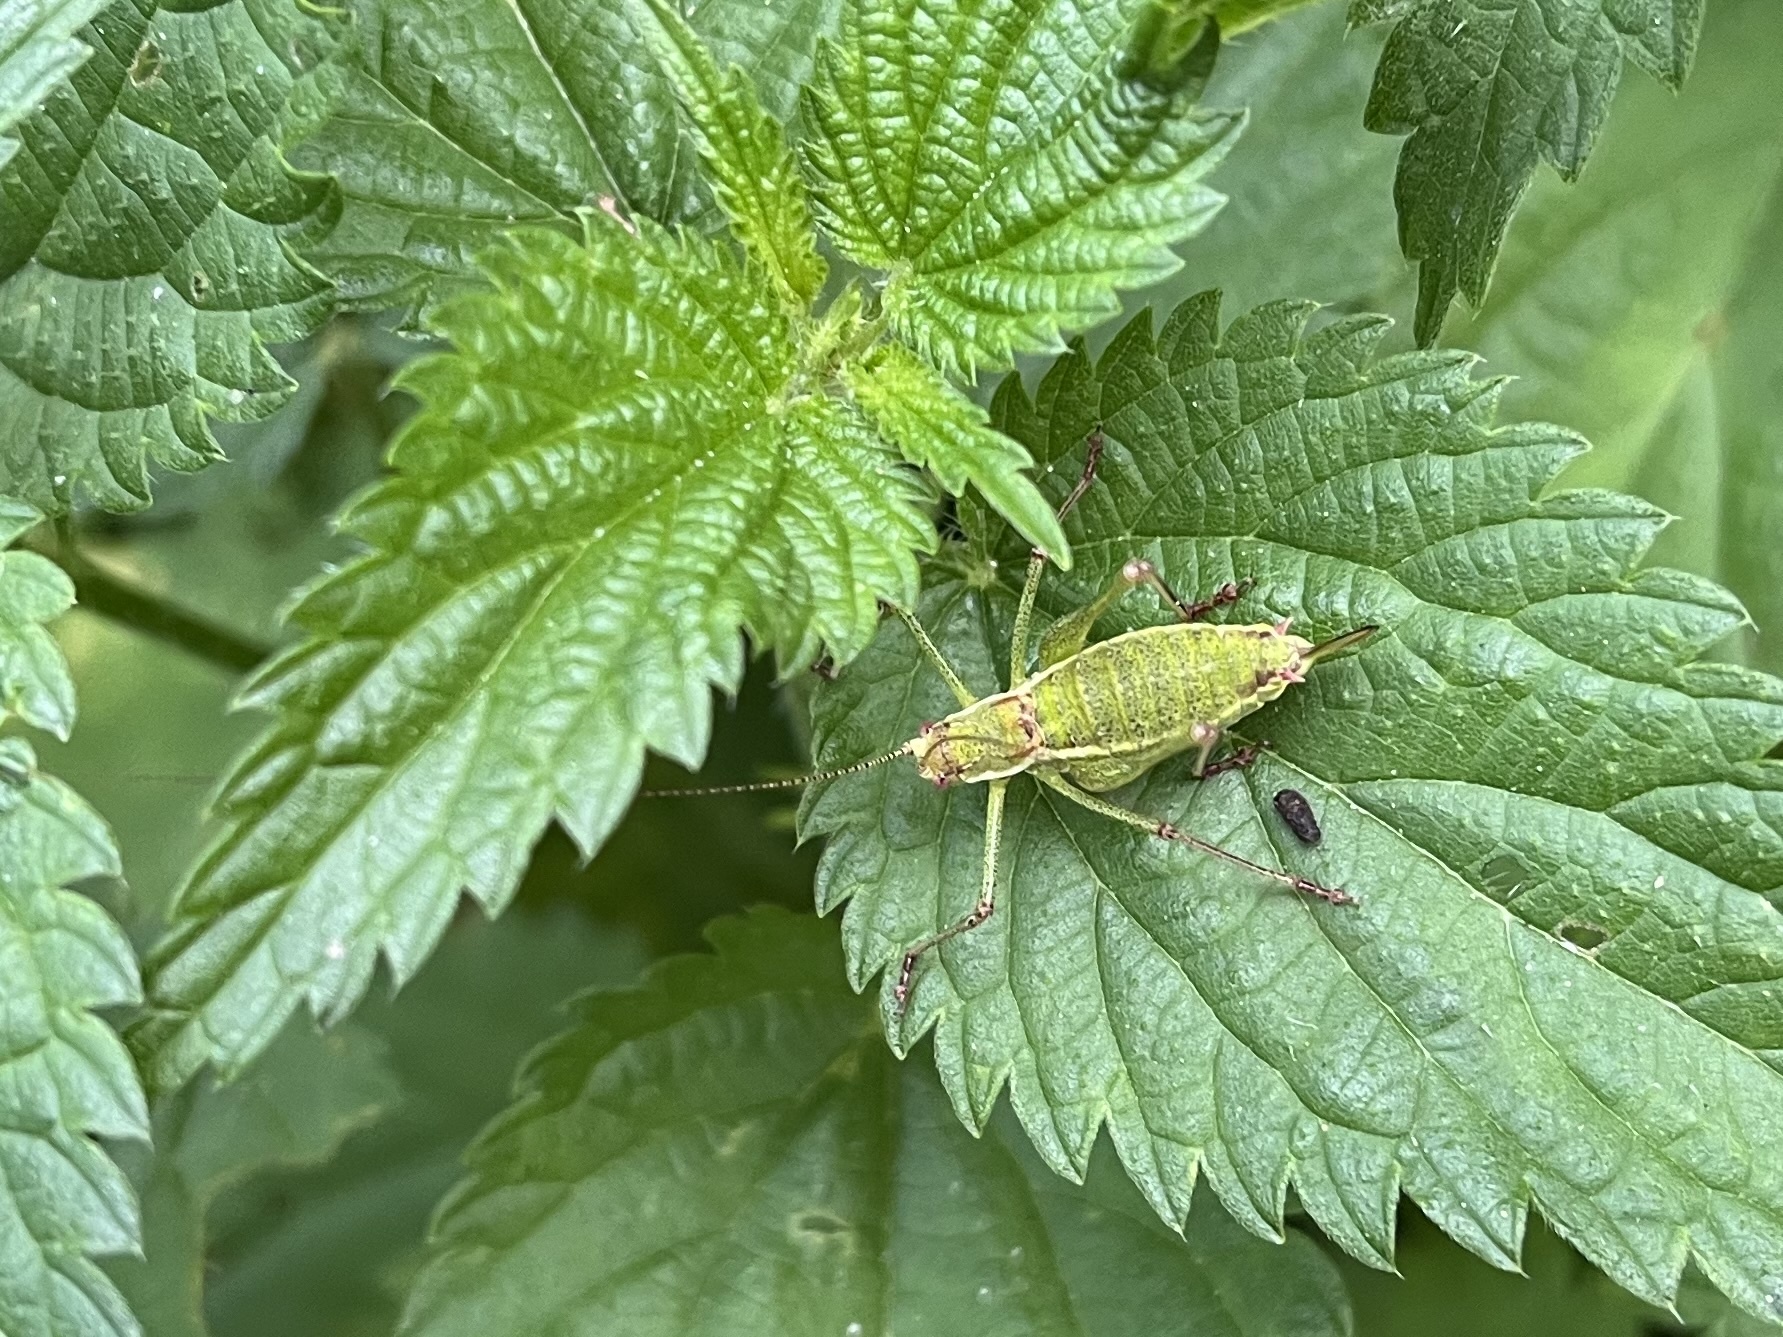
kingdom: Animalia
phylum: Arthropoda
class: Insecta
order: Orthoptera
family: Tettigoniidae
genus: Leptophyes
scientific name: Leptophyes albovittata
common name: Striped bush-cricket
